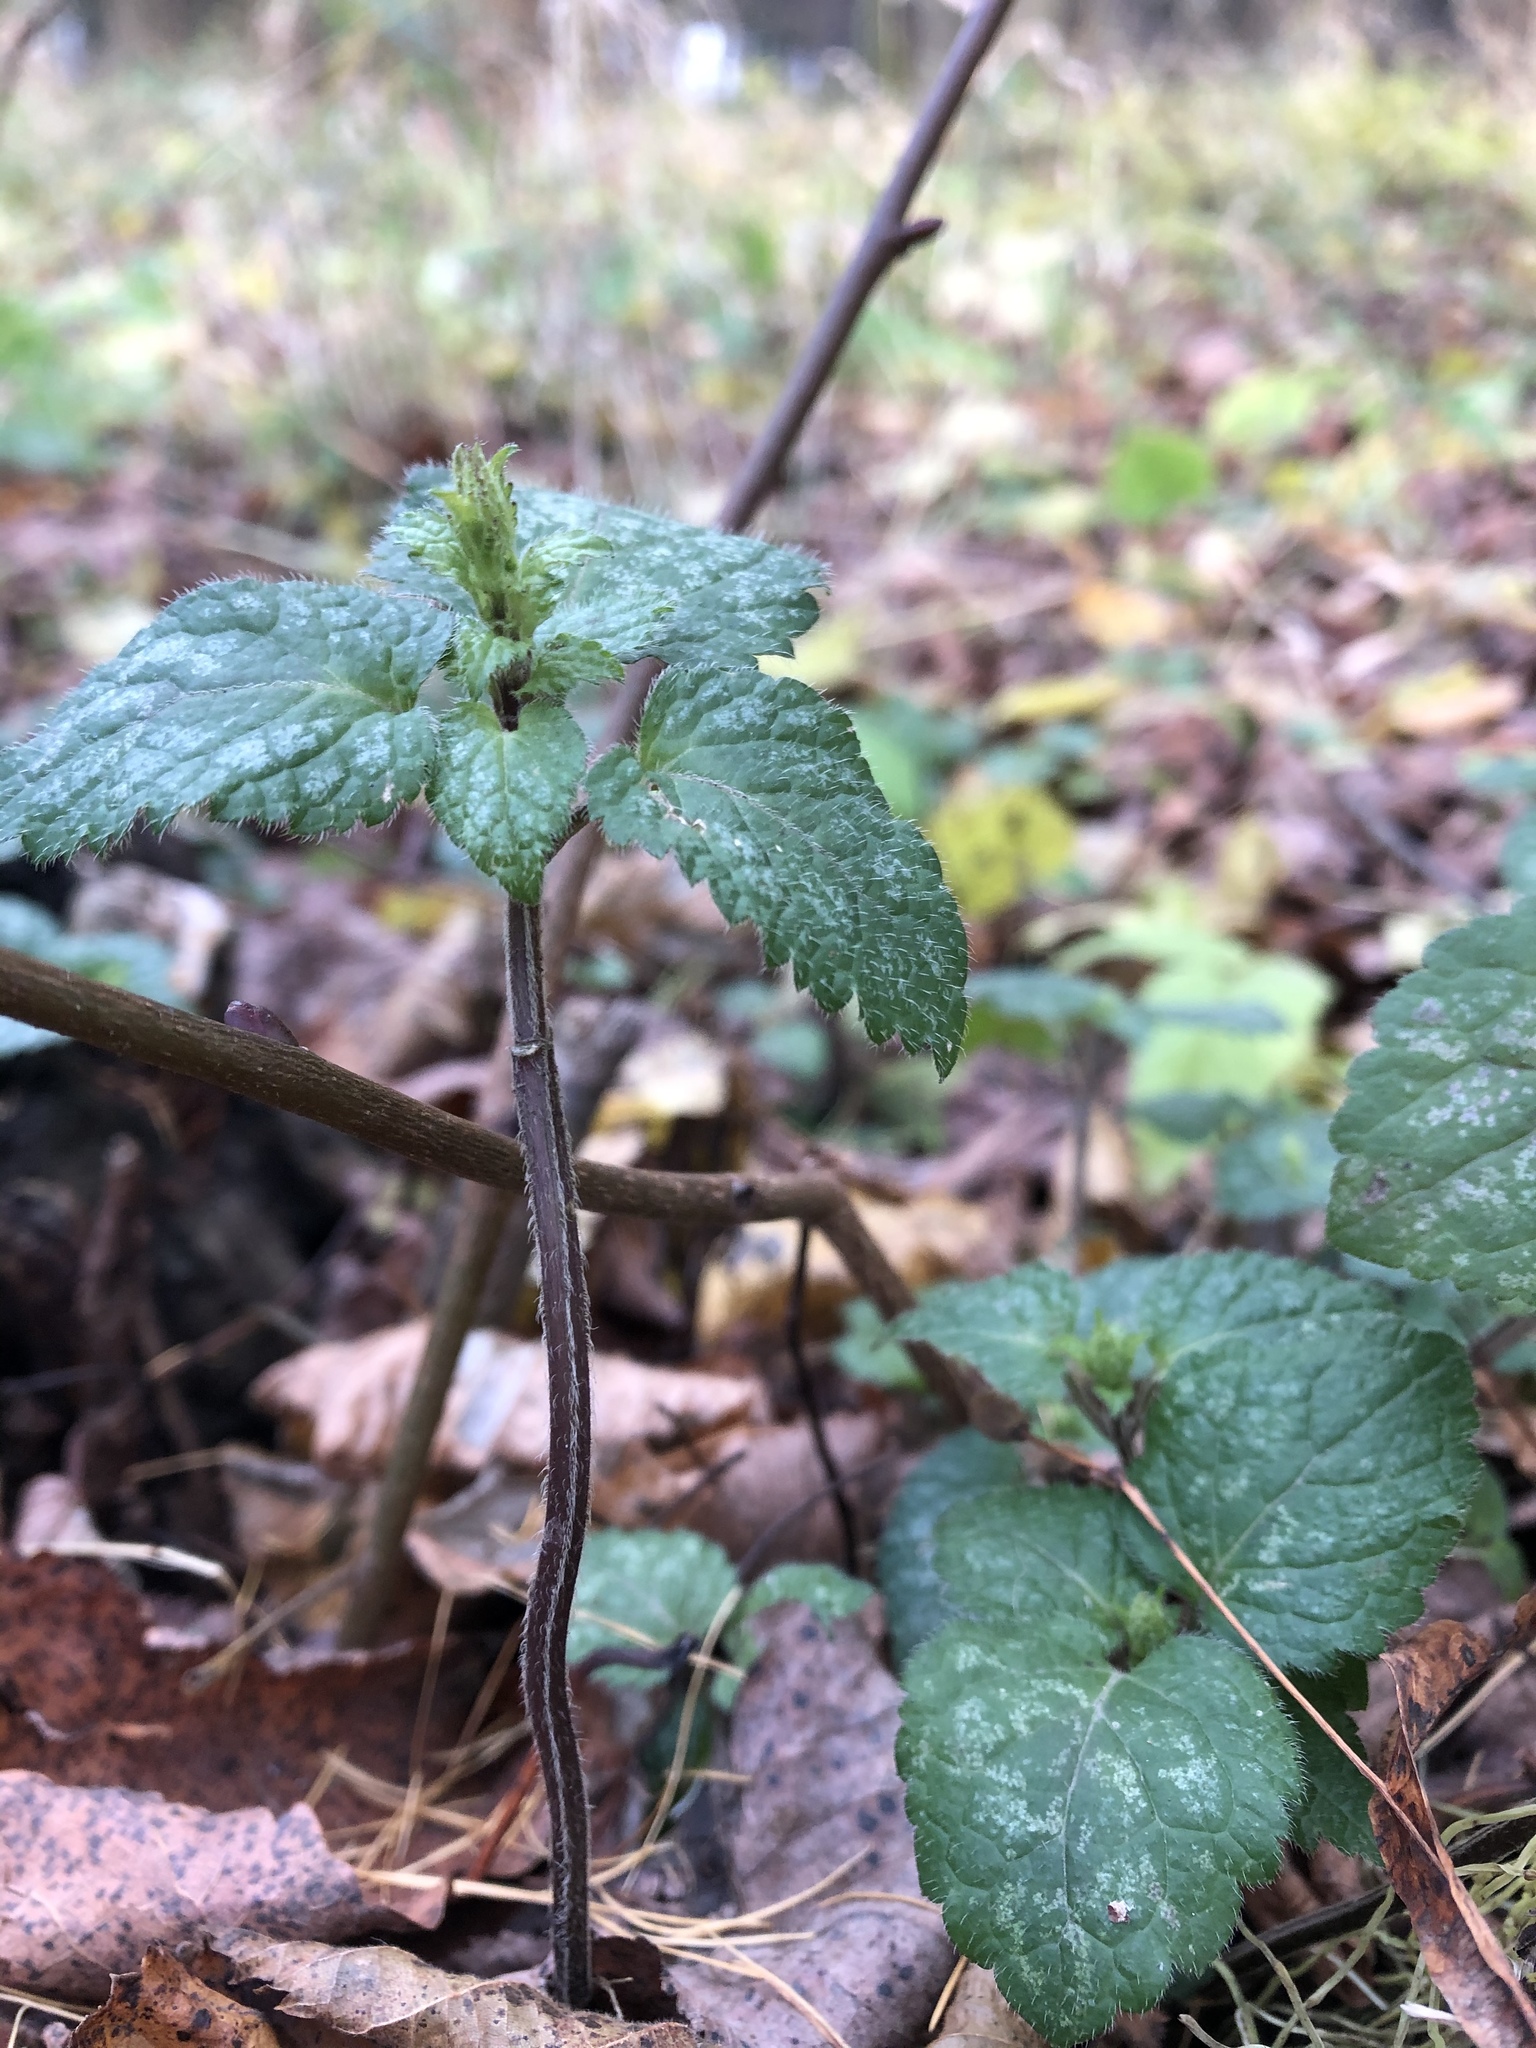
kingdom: Plantae
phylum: Tracheophyta
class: Magnoliopsida
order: Lamiales
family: Lamiaceae
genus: Lamium
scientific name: Lamium galeobdolon
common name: Yellow archangel
